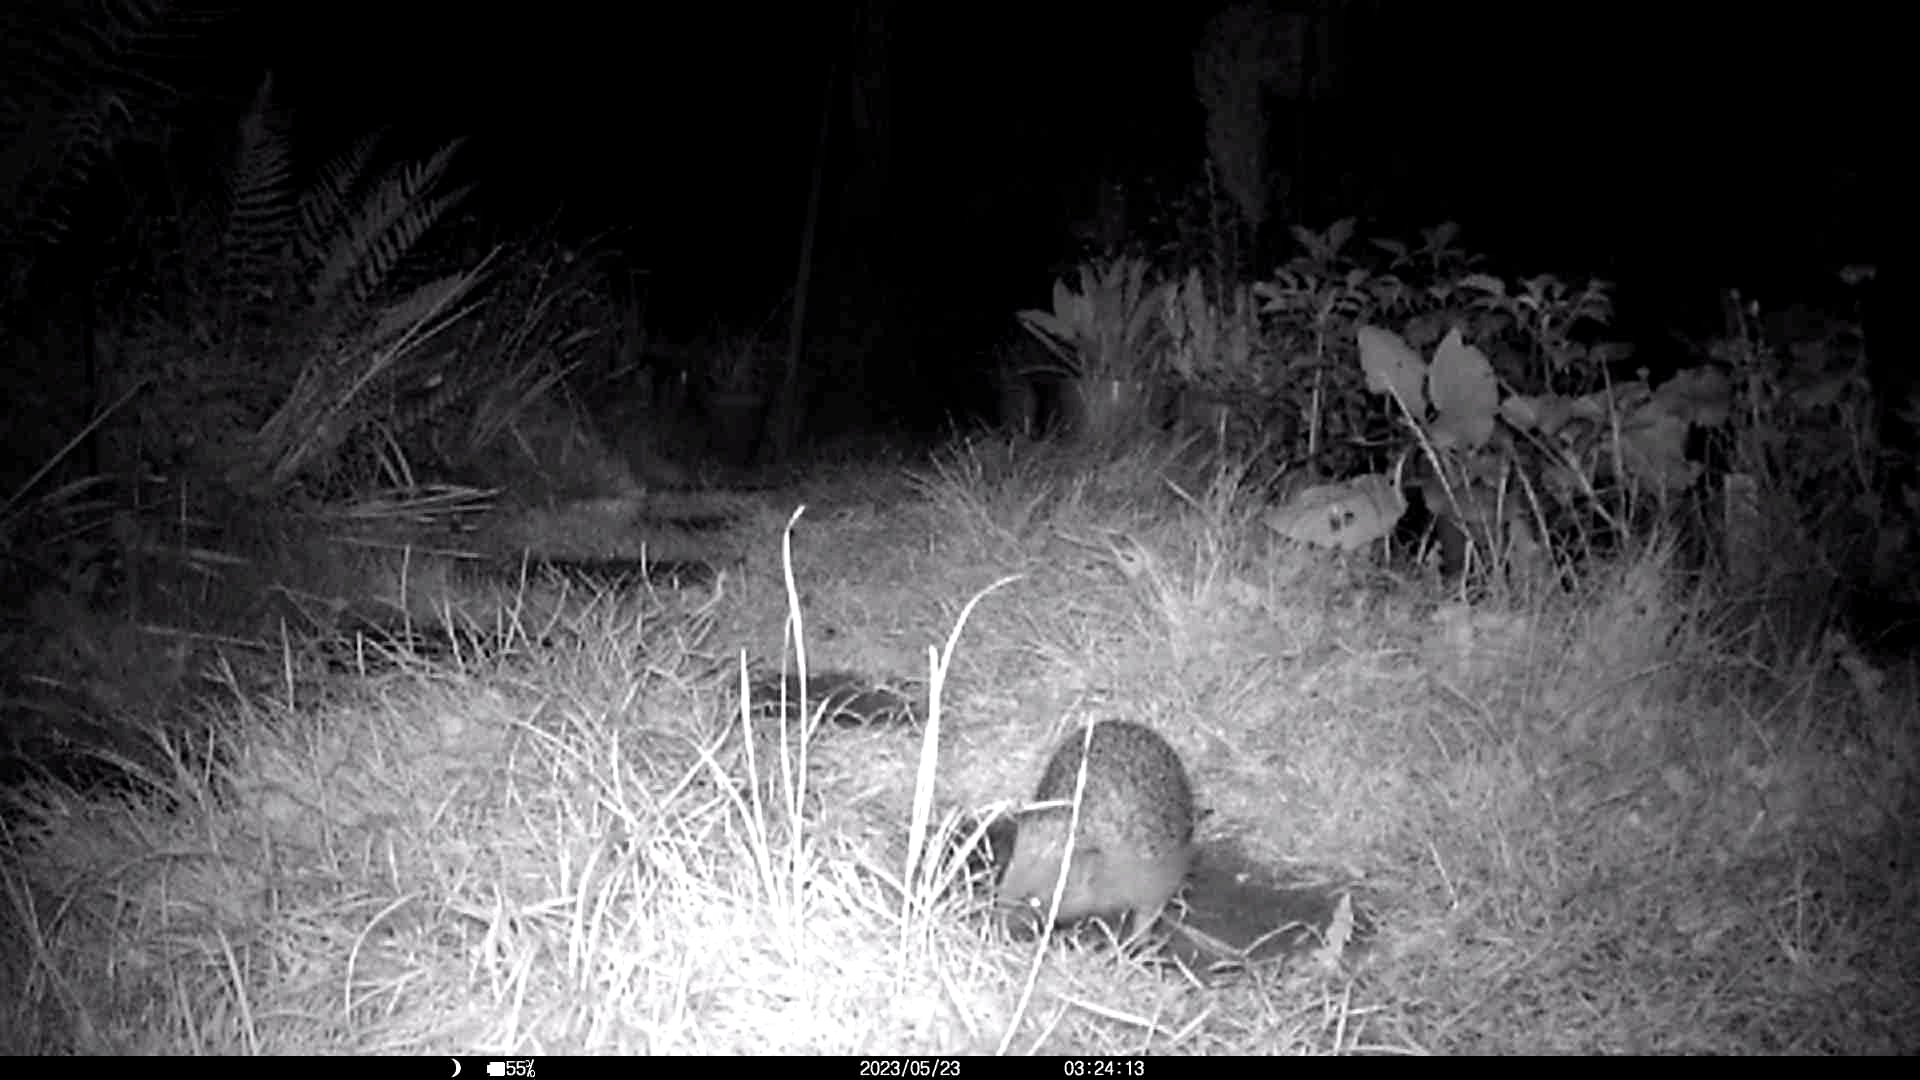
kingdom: Animalia
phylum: Chordata
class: Mammalia
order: Erinaceomorpha
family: Erinaceidae
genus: Erinaceus
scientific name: Erinaceus europaeus
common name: West european hedgehog
